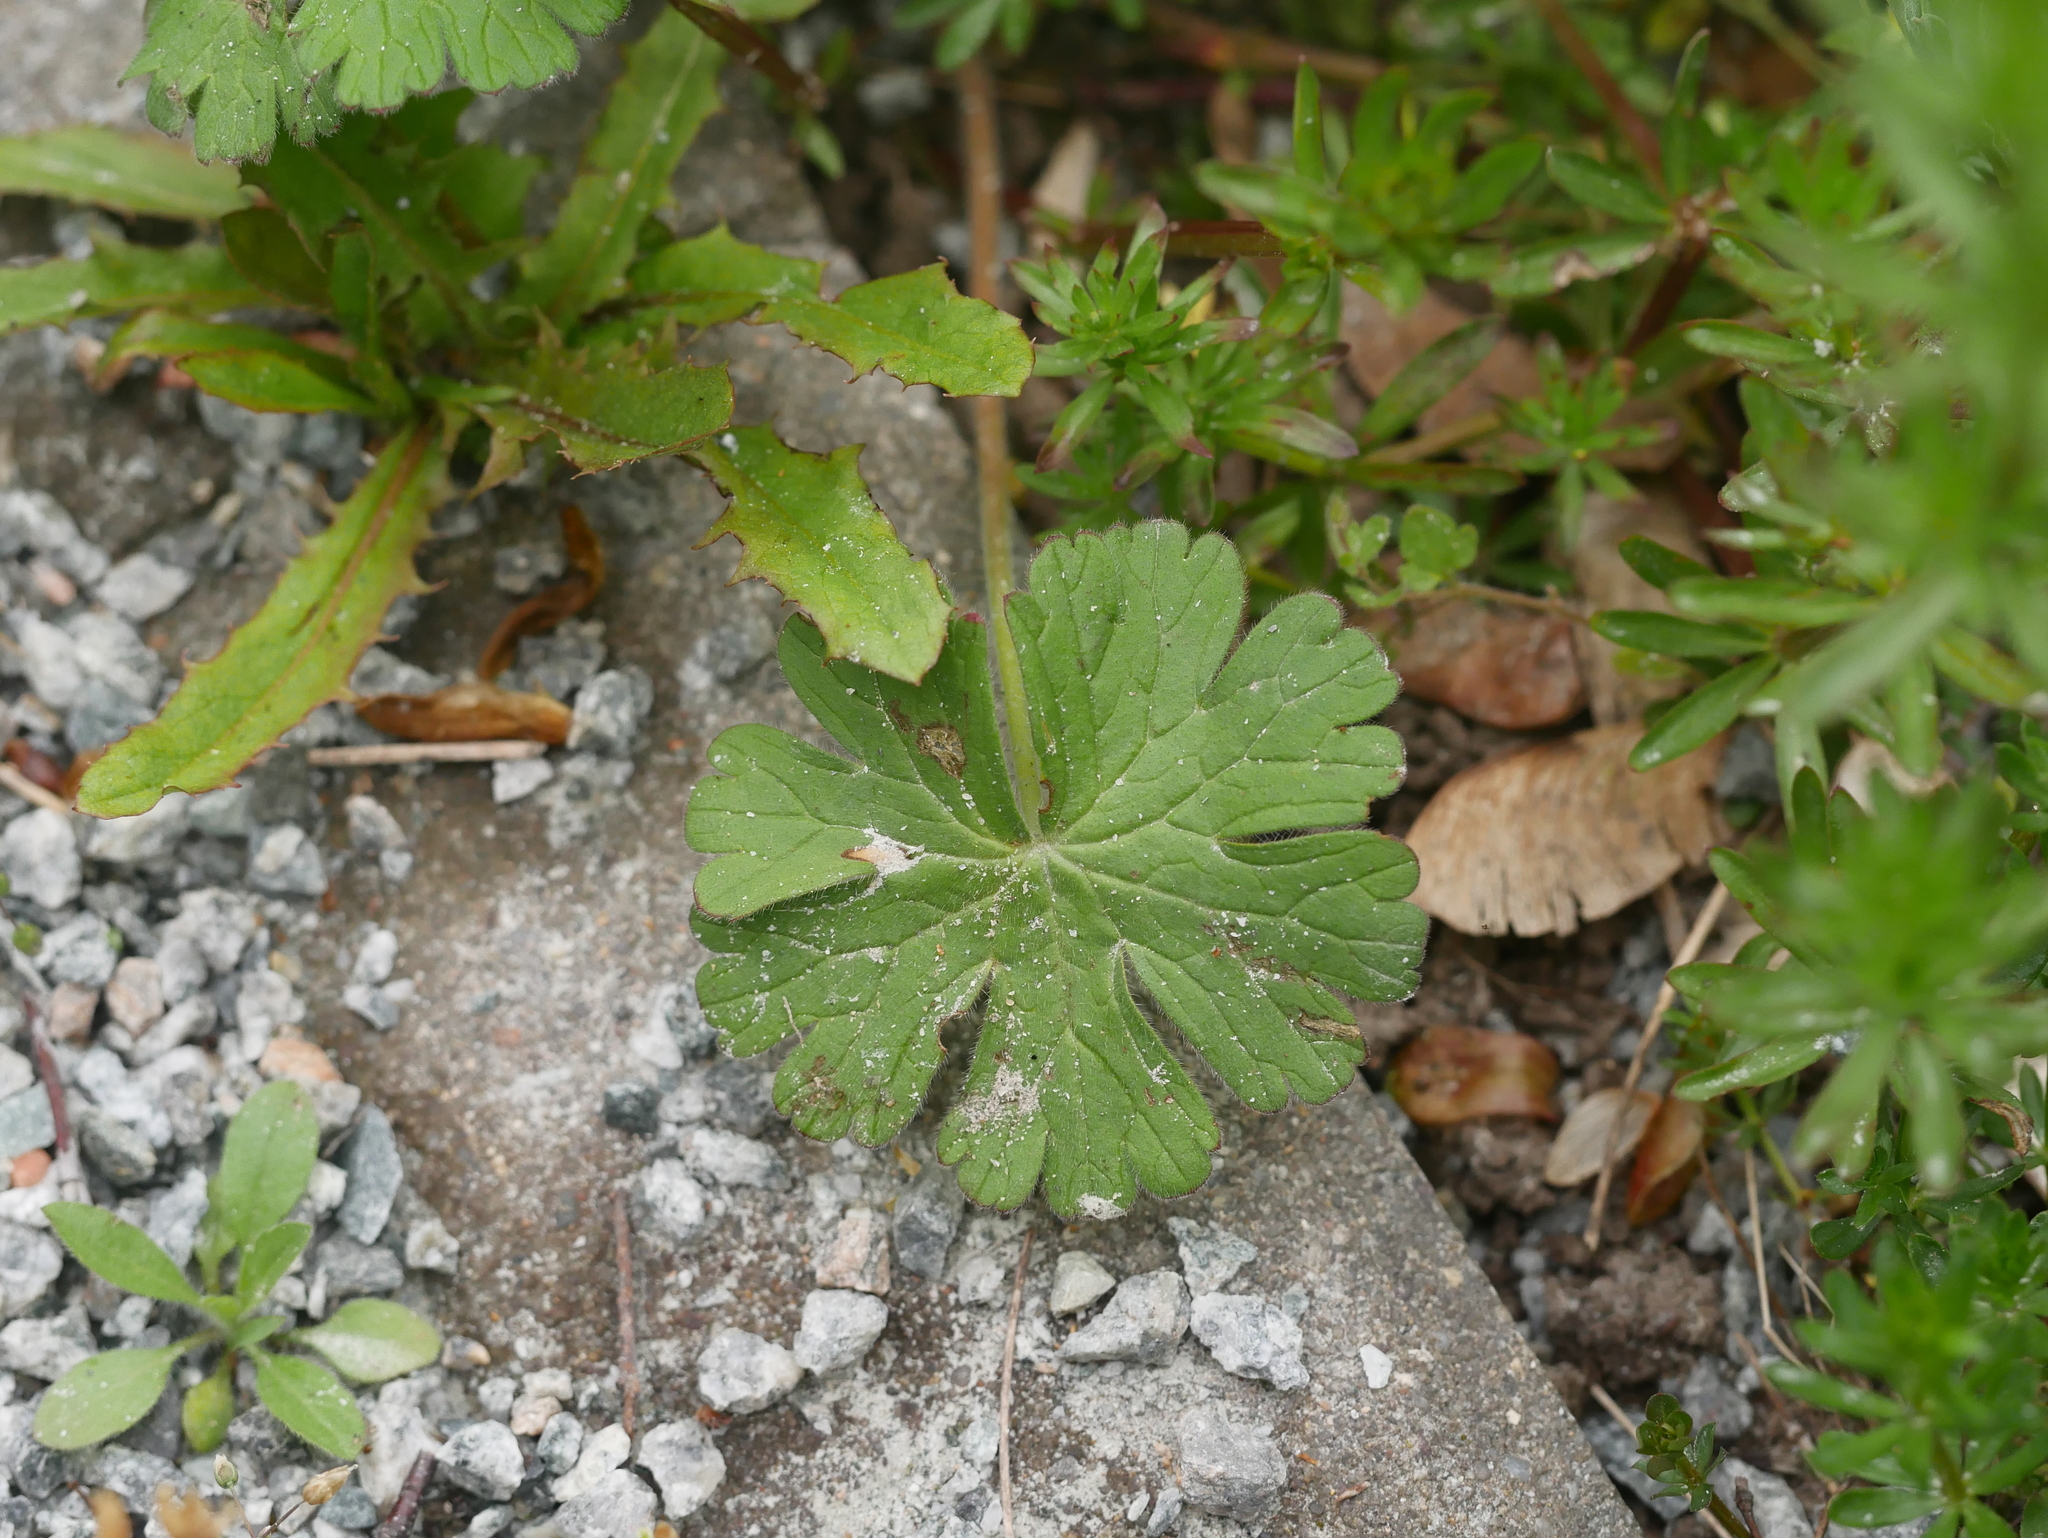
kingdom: Plantae
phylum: Tracheophyta
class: Magnoliopsida
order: Geraniales
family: Geraniaceae
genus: Geranium
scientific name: Geranium molle
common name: Dove's-foot crane's-bill
